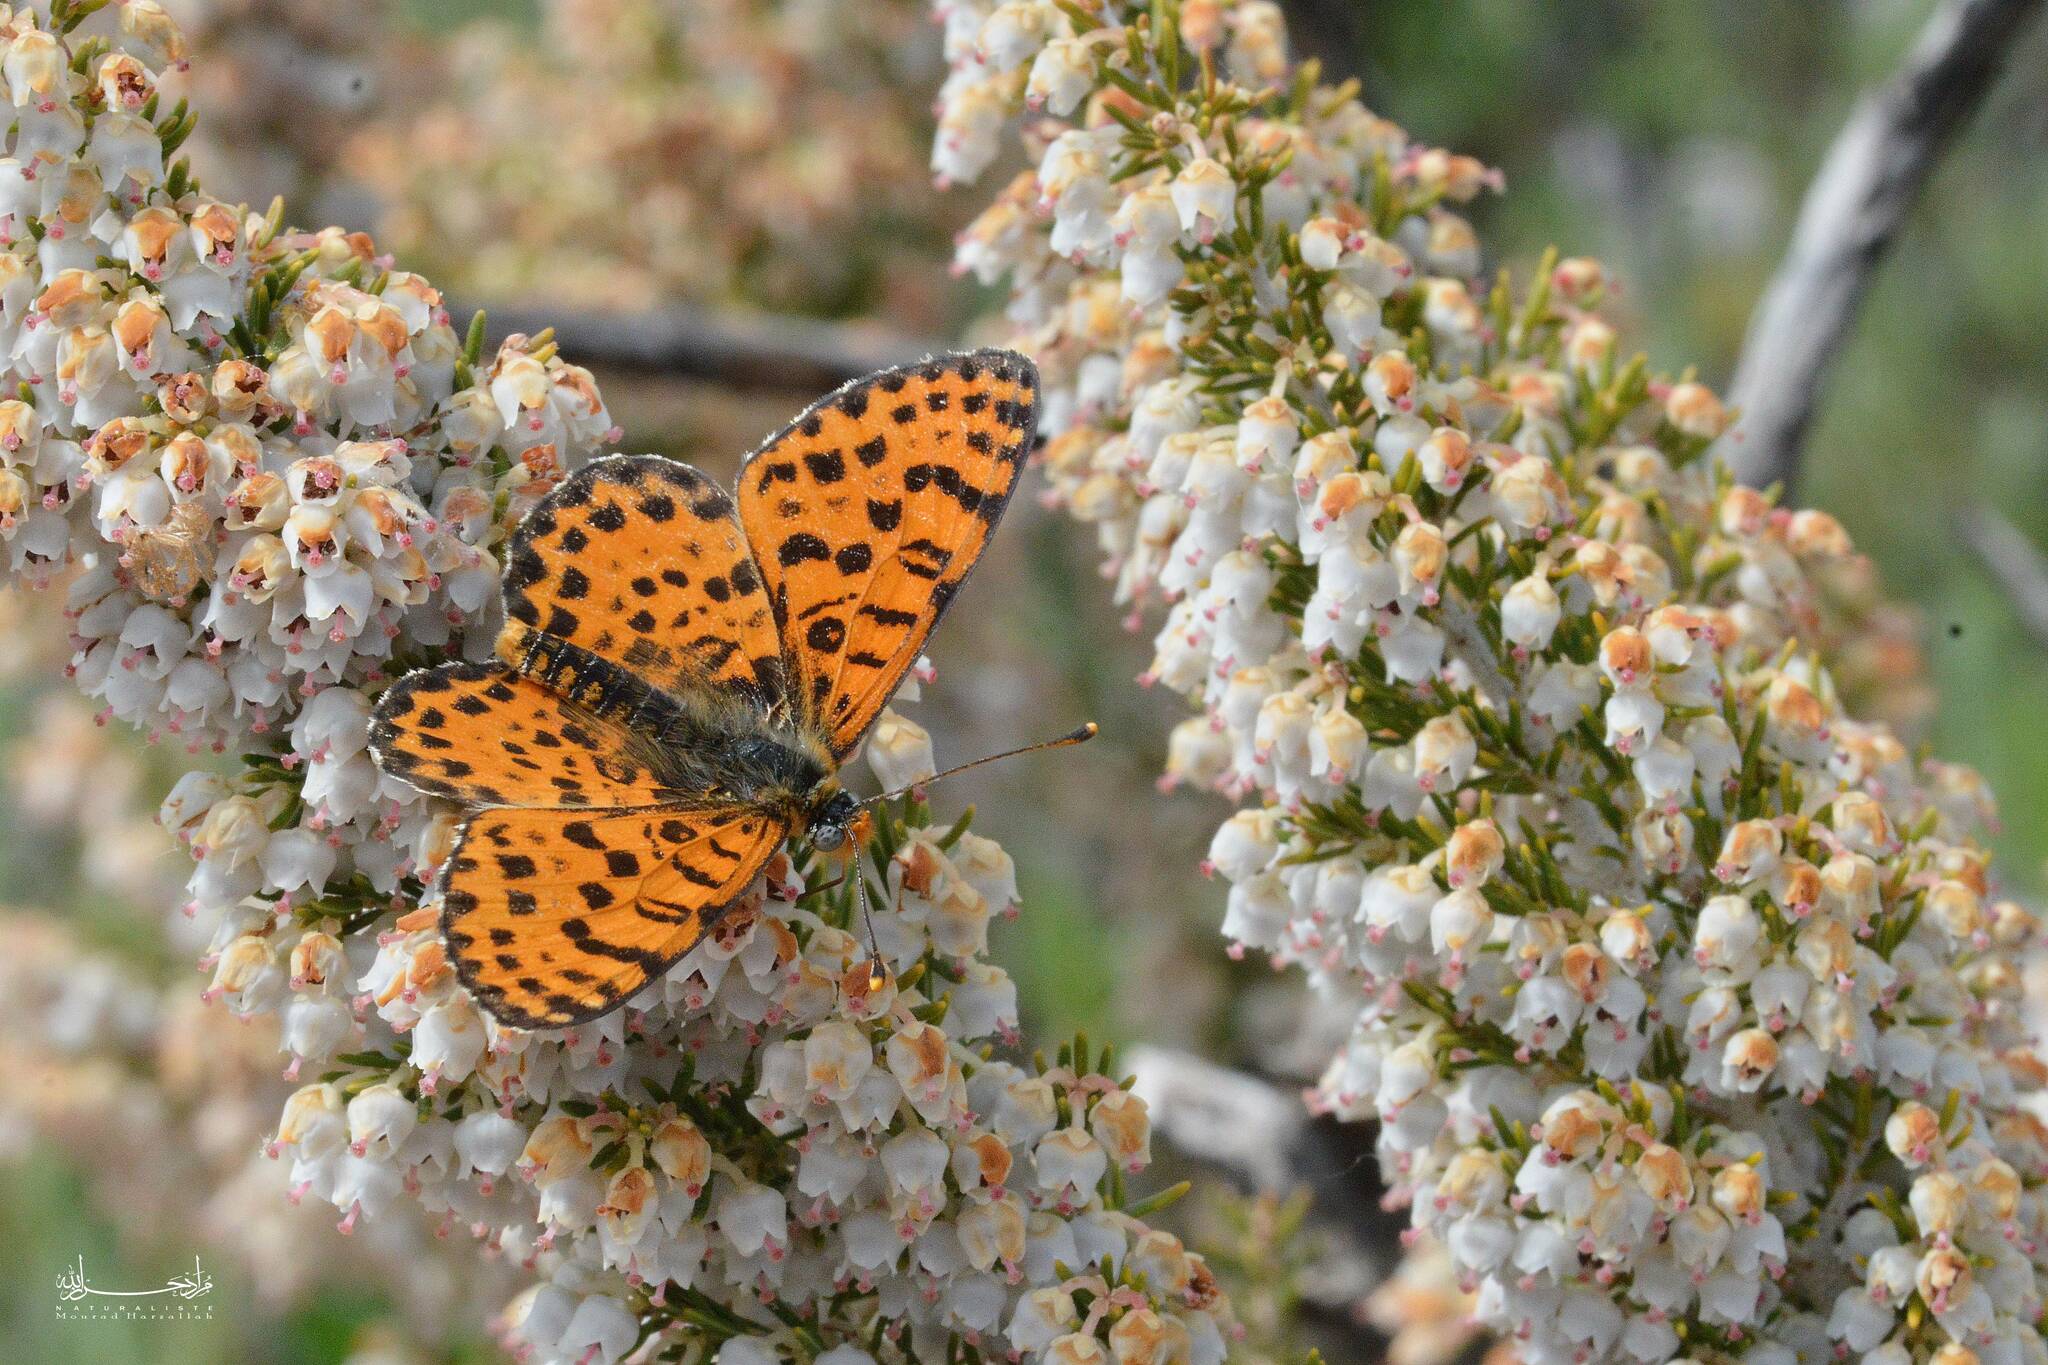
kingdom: Animalia
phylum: Arthropoda
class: Insecta
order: Lepidoptera
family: Nymphalidae
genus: Melitaea
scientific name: Melitaea didyma
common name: Spotted fritillary
